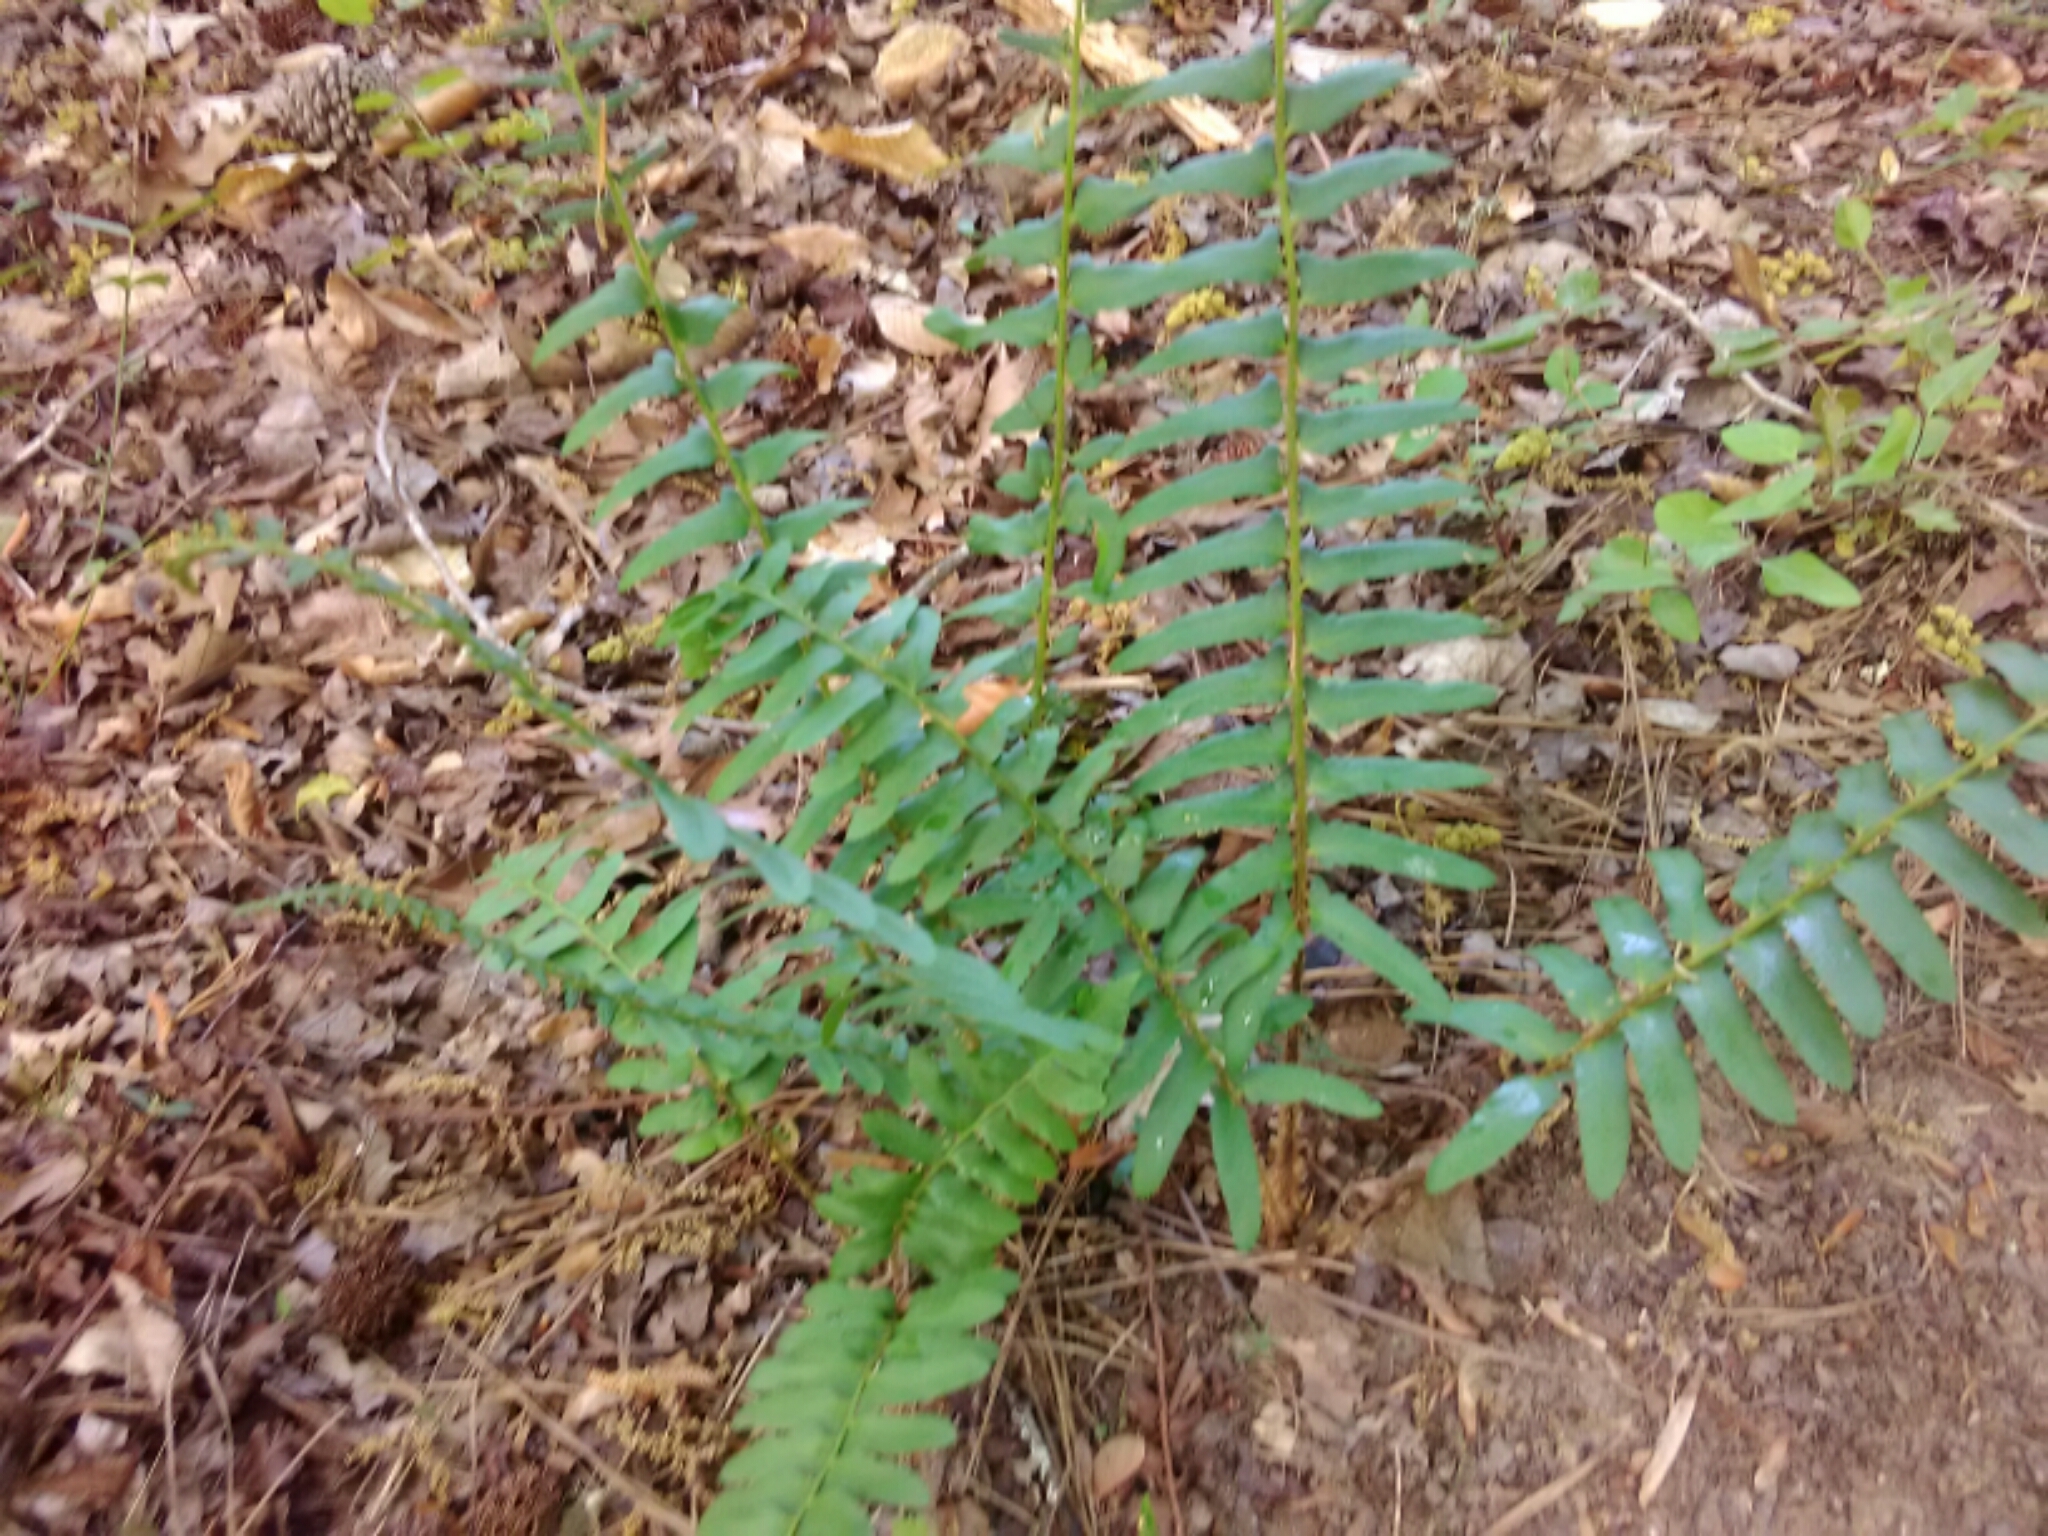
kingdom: Plantae
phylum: Tracheophyta
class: Polypodiopsida
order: Polypodiales
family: Dryopteridaceae
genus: Polystichum
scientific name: Polystichum acrostichoides
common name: Christmas fern
